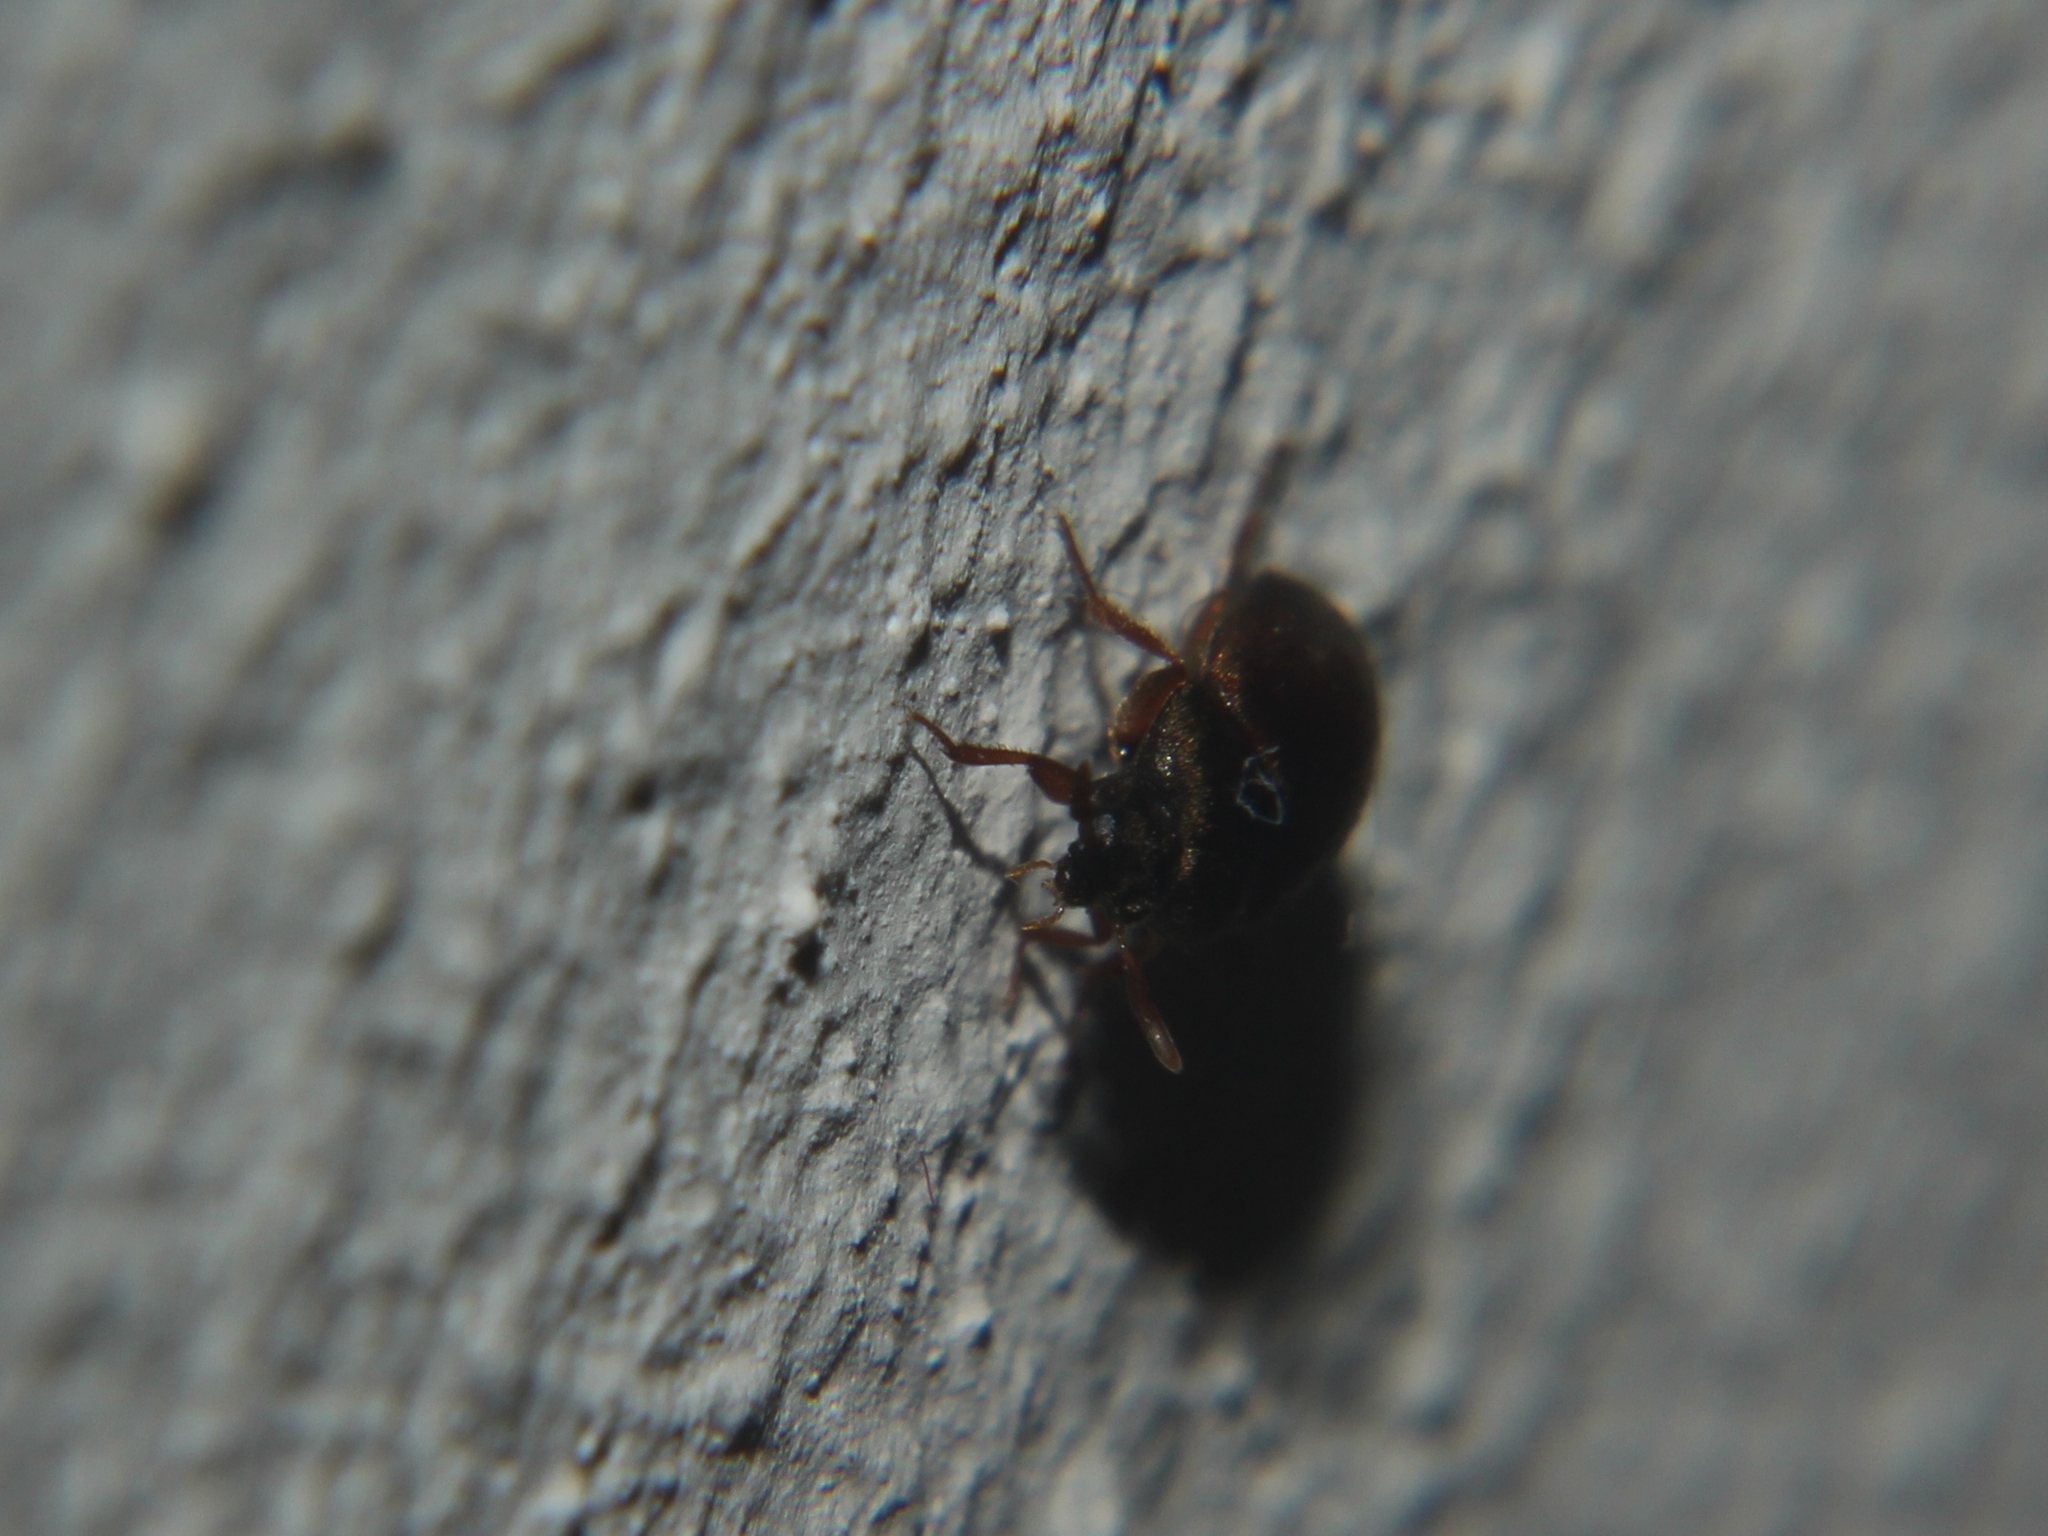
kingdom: Animalia
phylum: Arthropoda
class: Insecta
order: Coleoptera
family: Dermestidae
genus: Attagenus
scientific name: Attagenus smirnovi
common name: Brown carpet beetle
